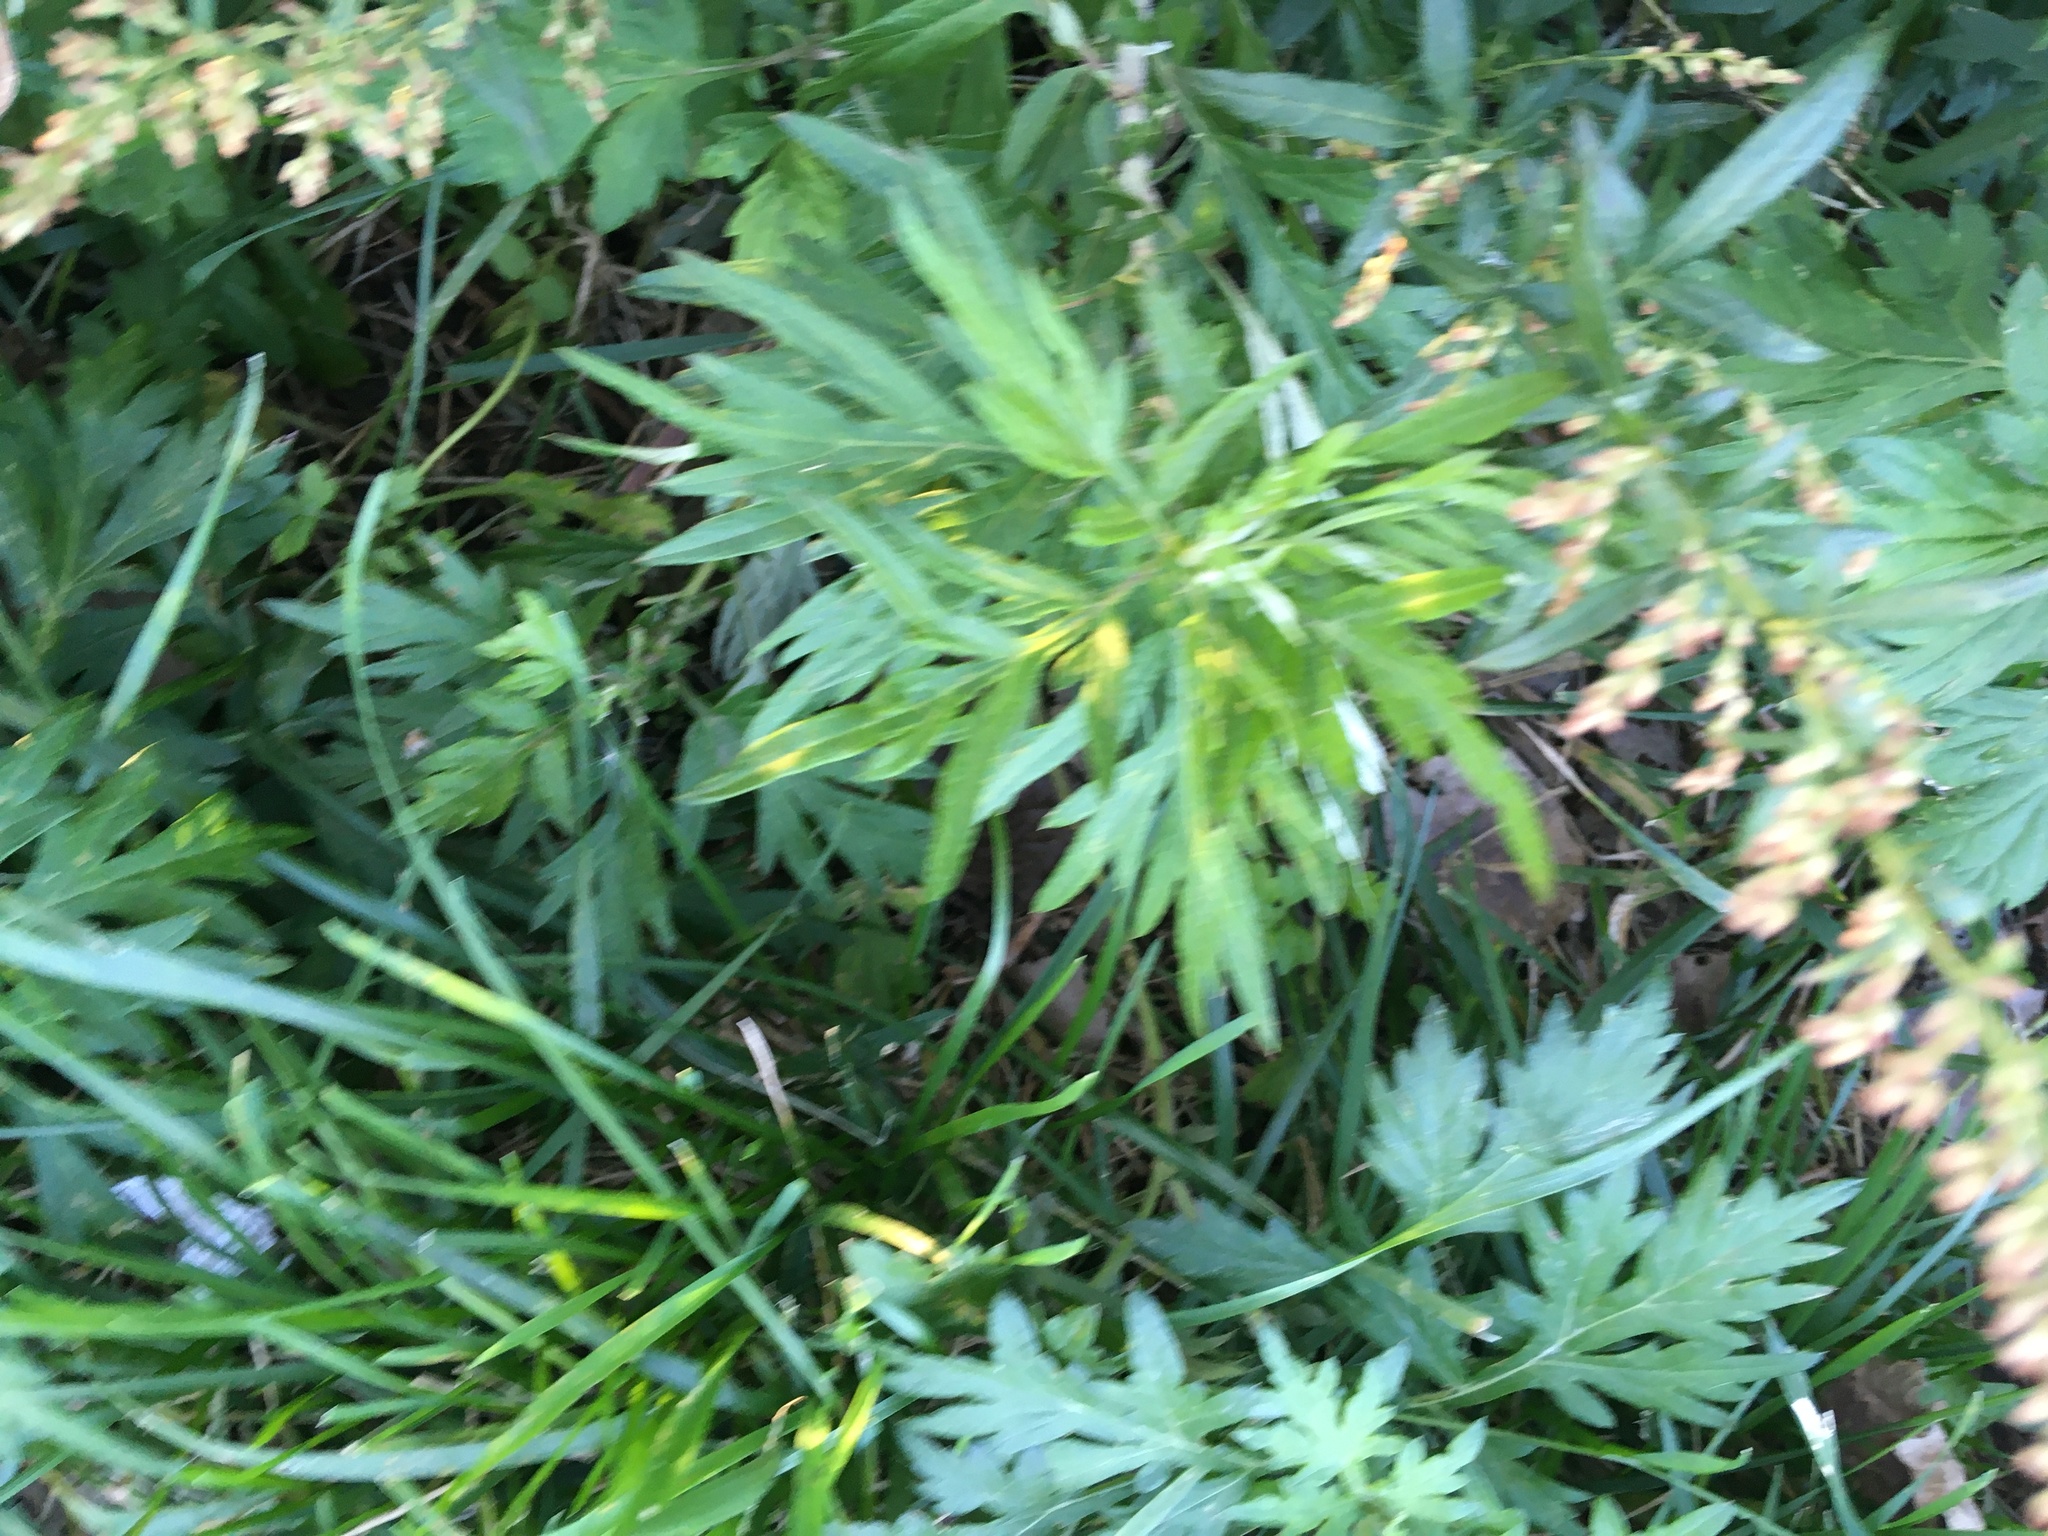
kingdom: Plantae
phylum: Tracheophyta
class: Magnoliopsida
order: Asterales
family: Asteraceae
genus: Artemisia
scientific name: Artemisia vulgaris
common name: Mugwort
